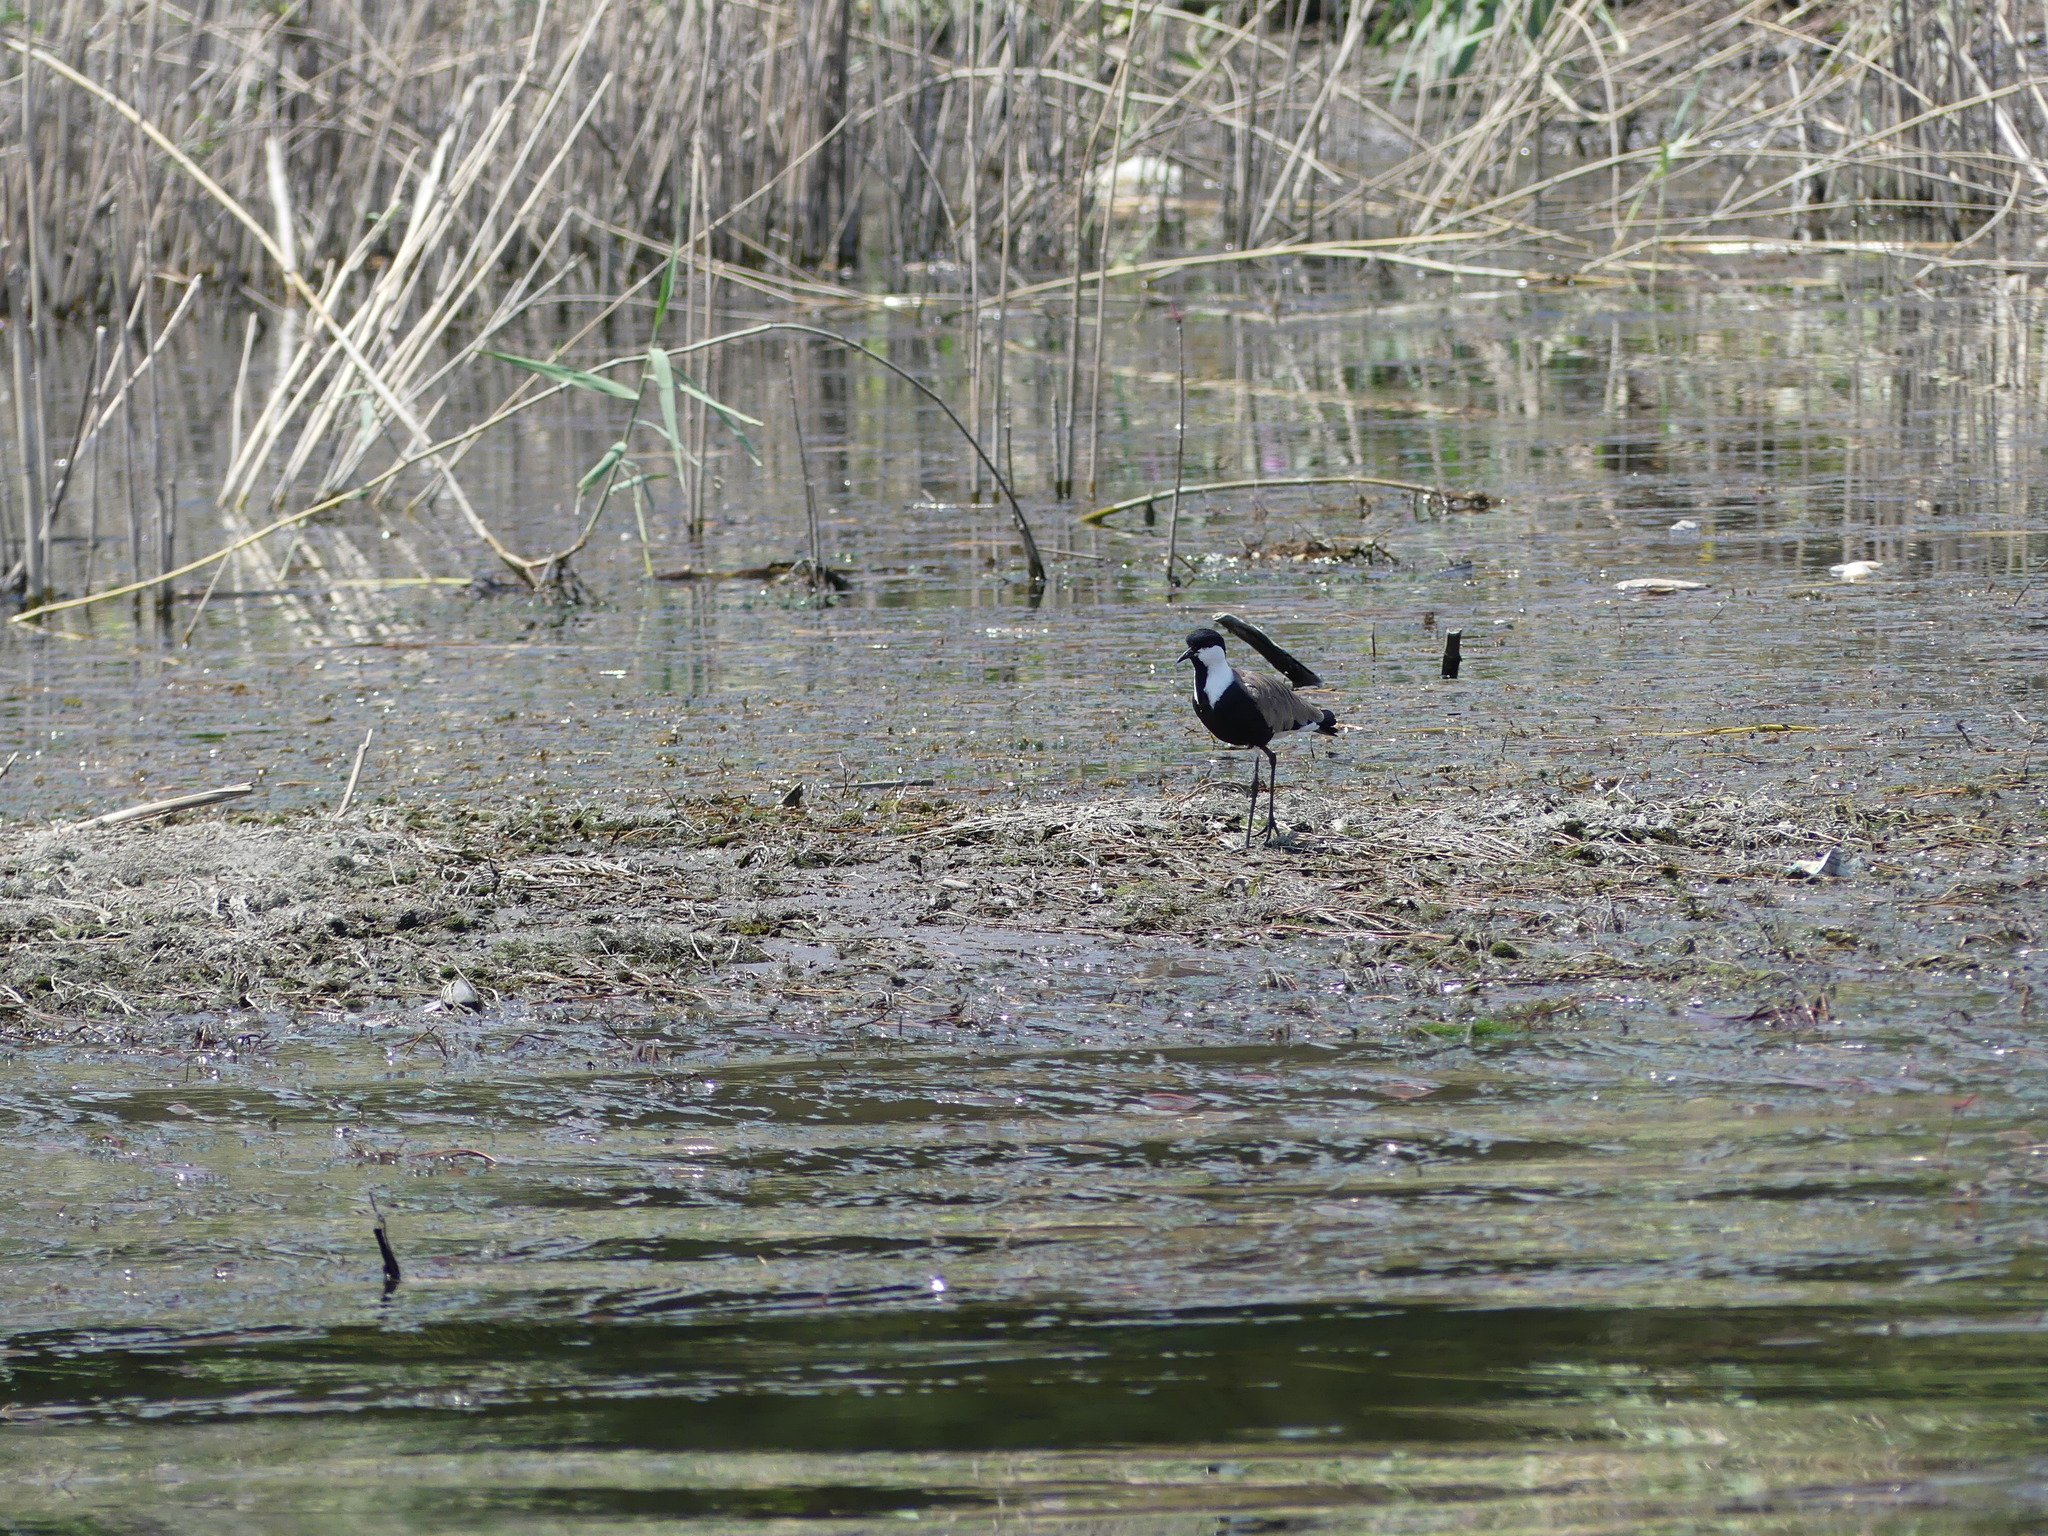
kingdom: Animalia
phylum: Chordata
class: Aves
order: Charadriiformes
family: Charadriidae
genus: Vanellus
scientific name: Vanellus spinosus
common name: Spur-winged lapwing
